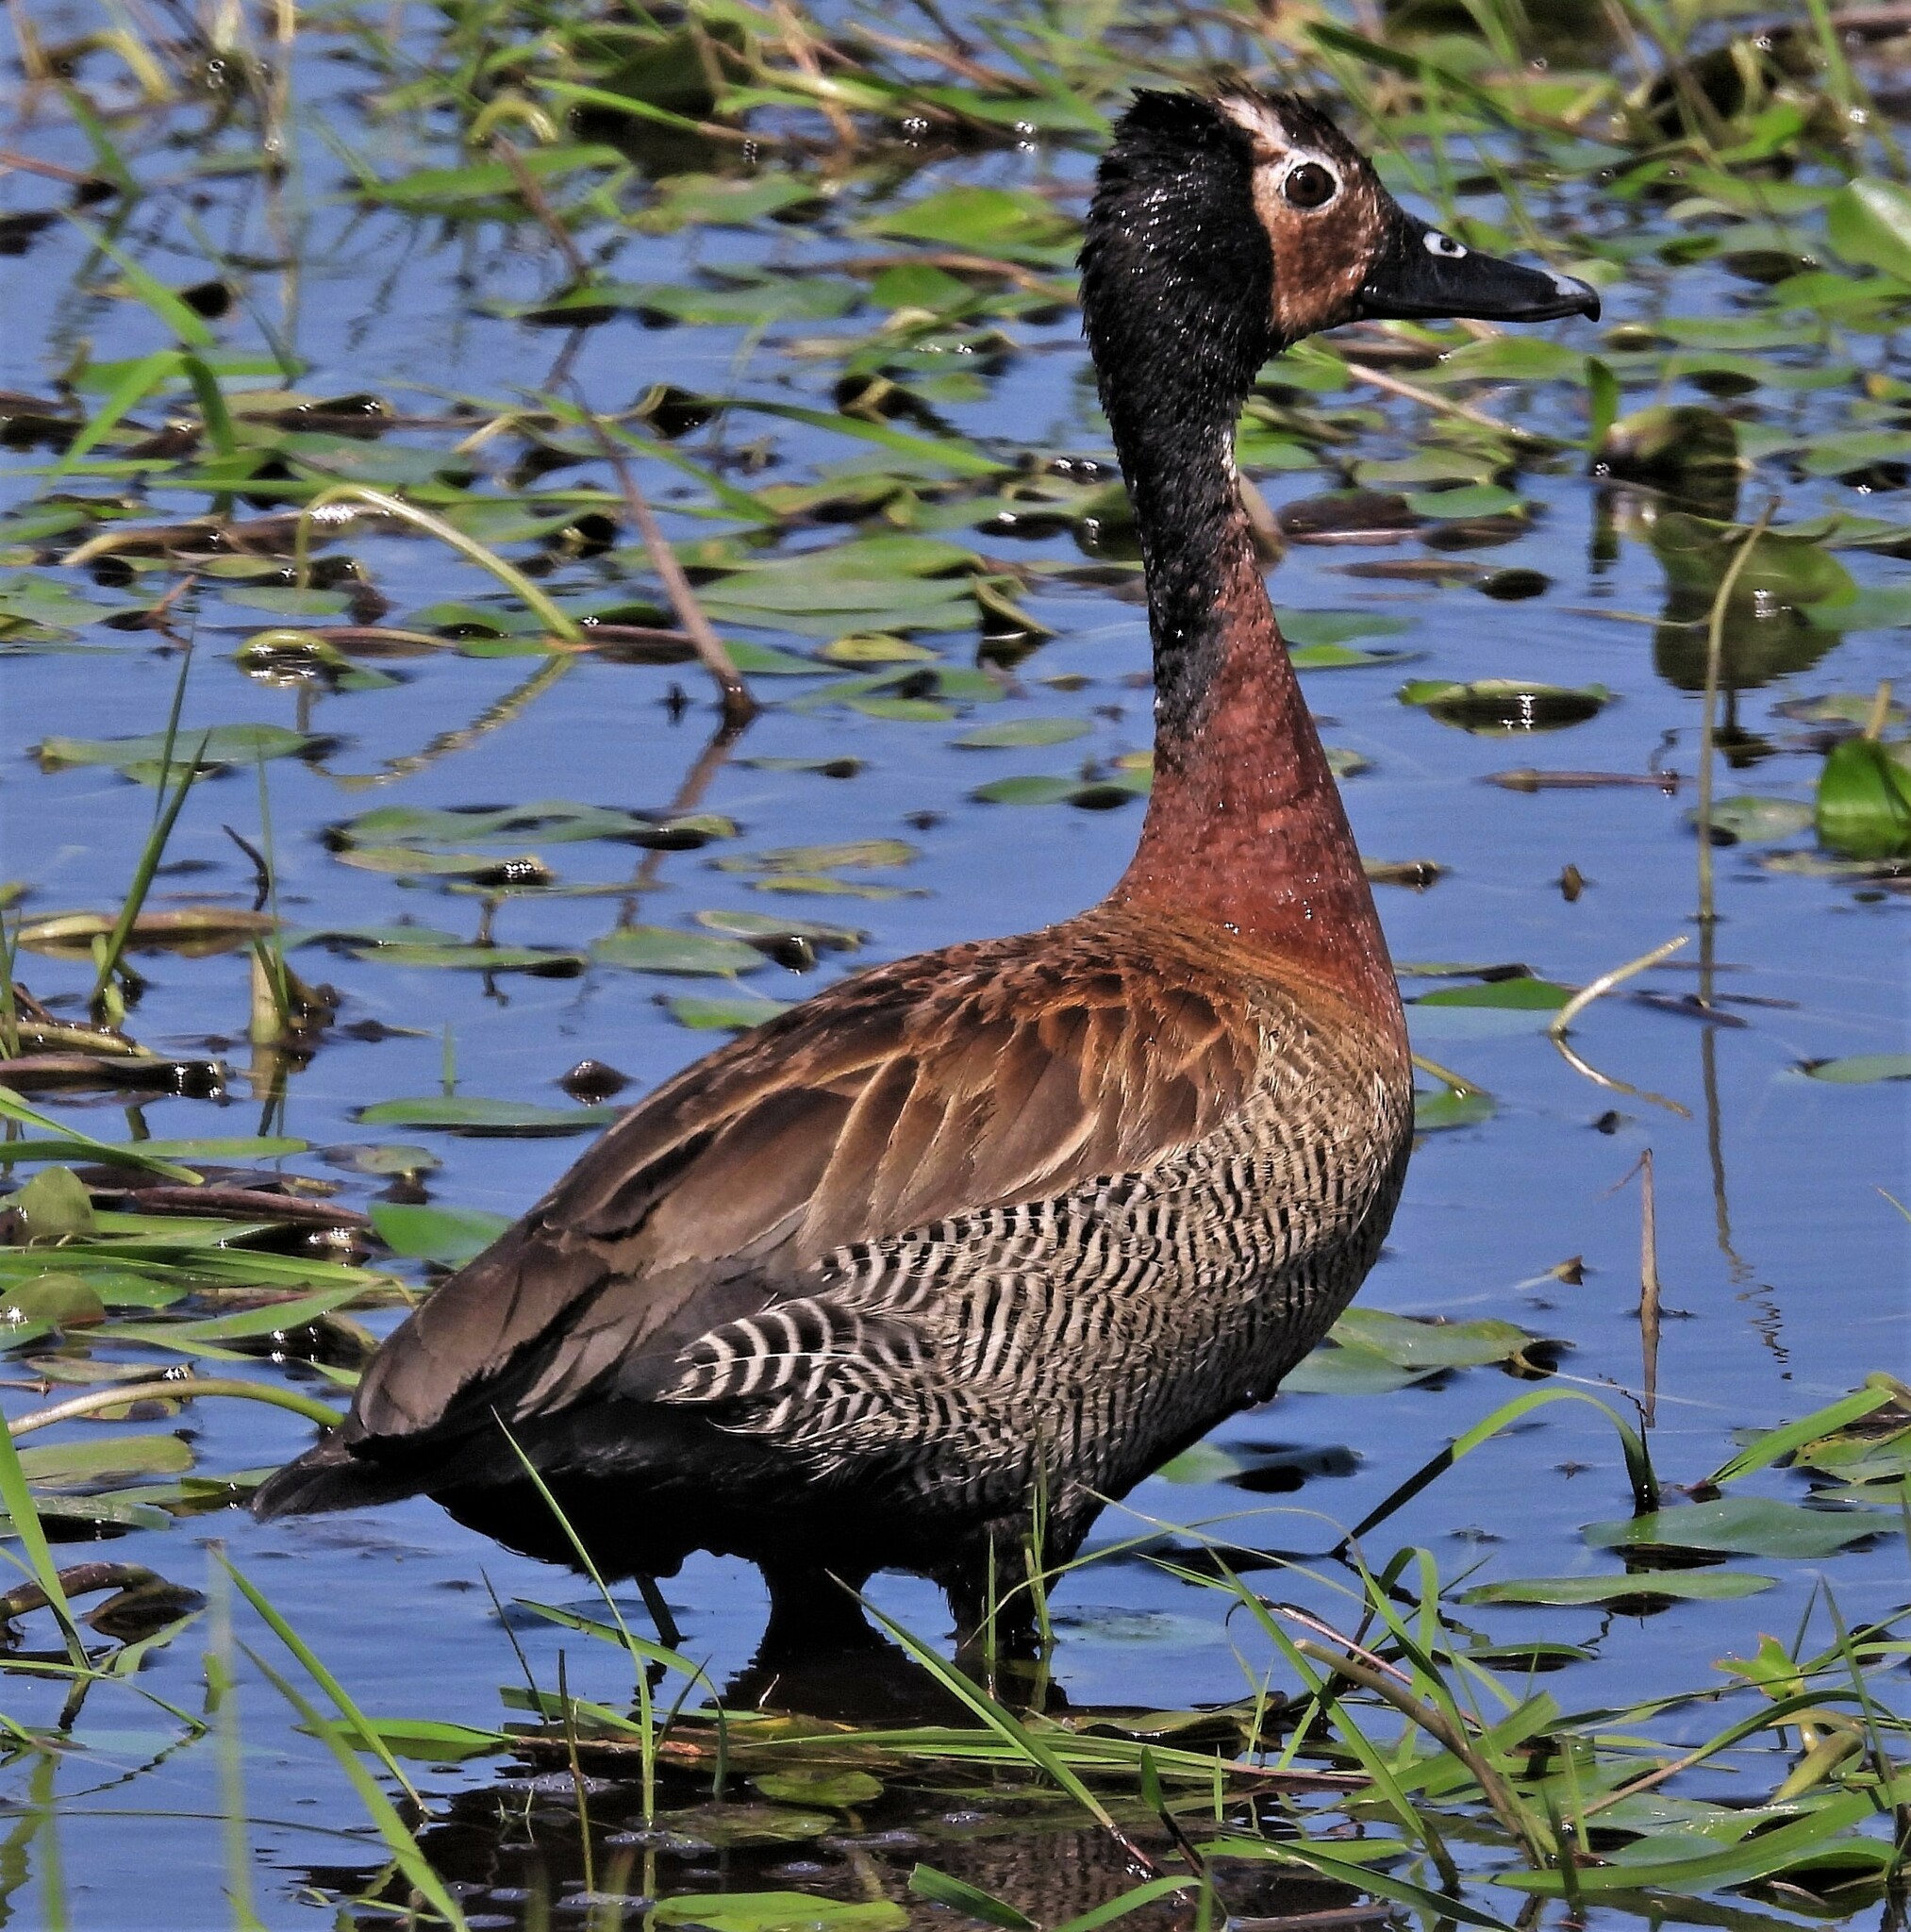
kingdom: Animalia
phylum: Chordata
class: Aves
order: Anseriformes
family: Anatidae
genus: Dendrocygna
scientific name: Dendrocygna viduata
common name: White-faced whistling duck
